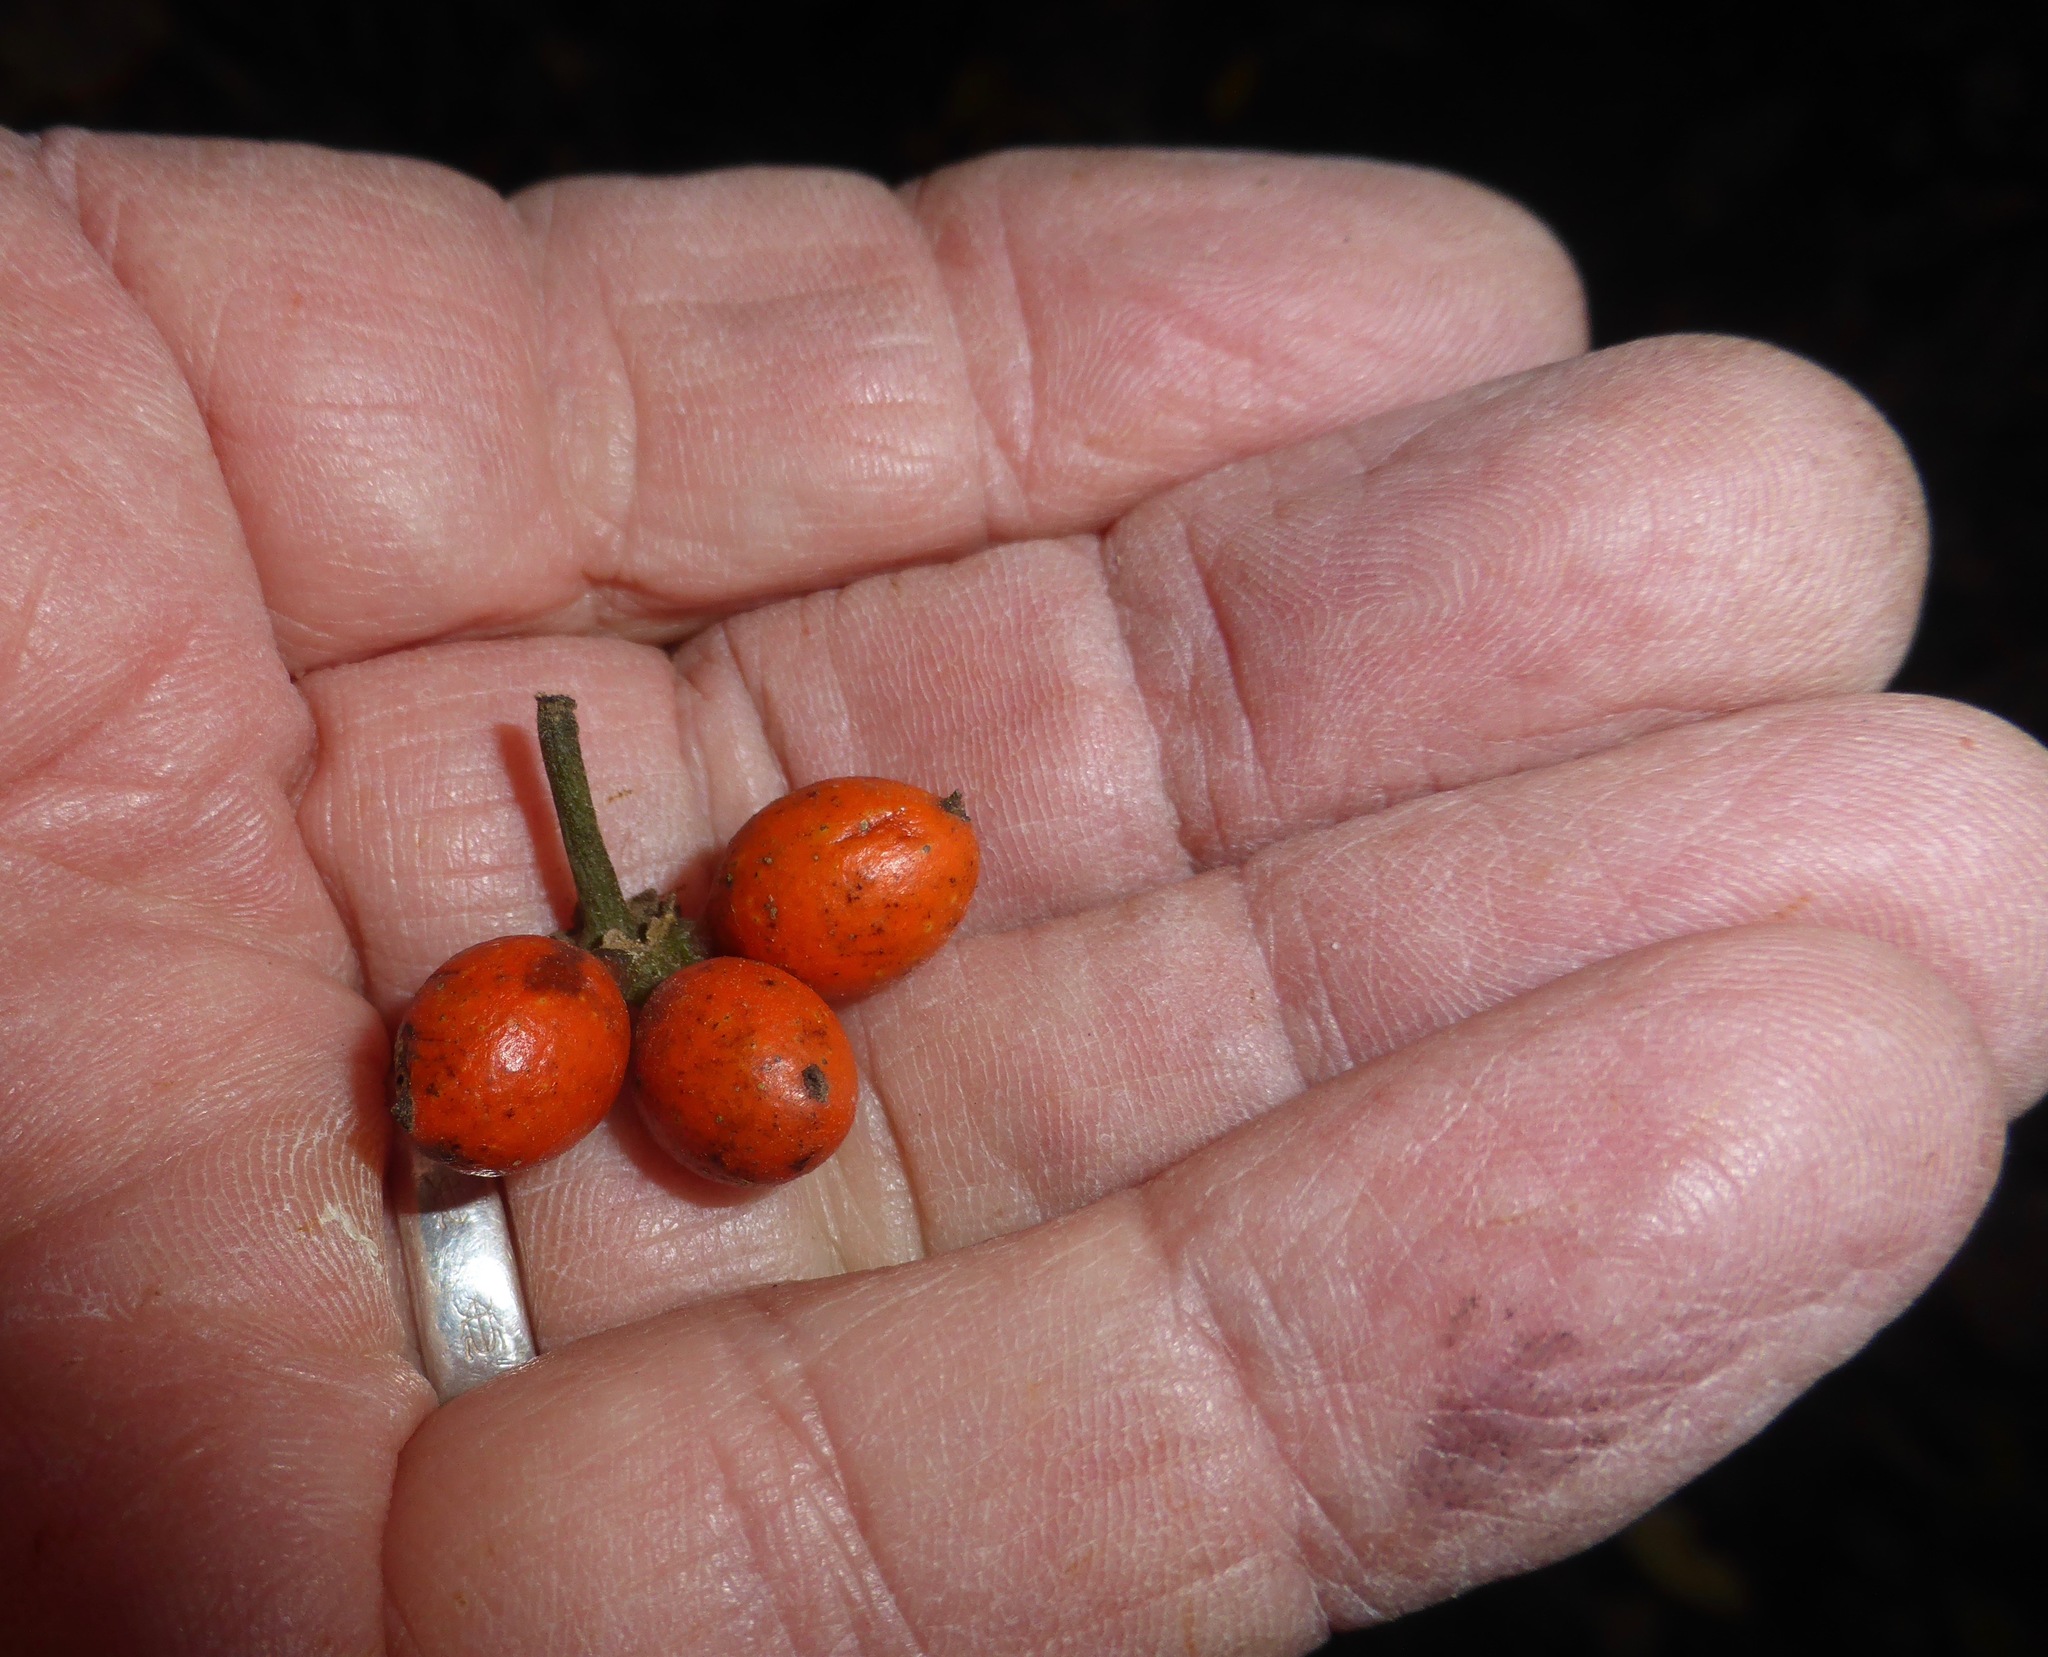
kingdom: Plantae
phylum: Tracheophyta
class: Magnoliopsida
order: Laurales
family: Monimiaceae
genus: Hedycarya
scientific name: Hedycarya arborea
